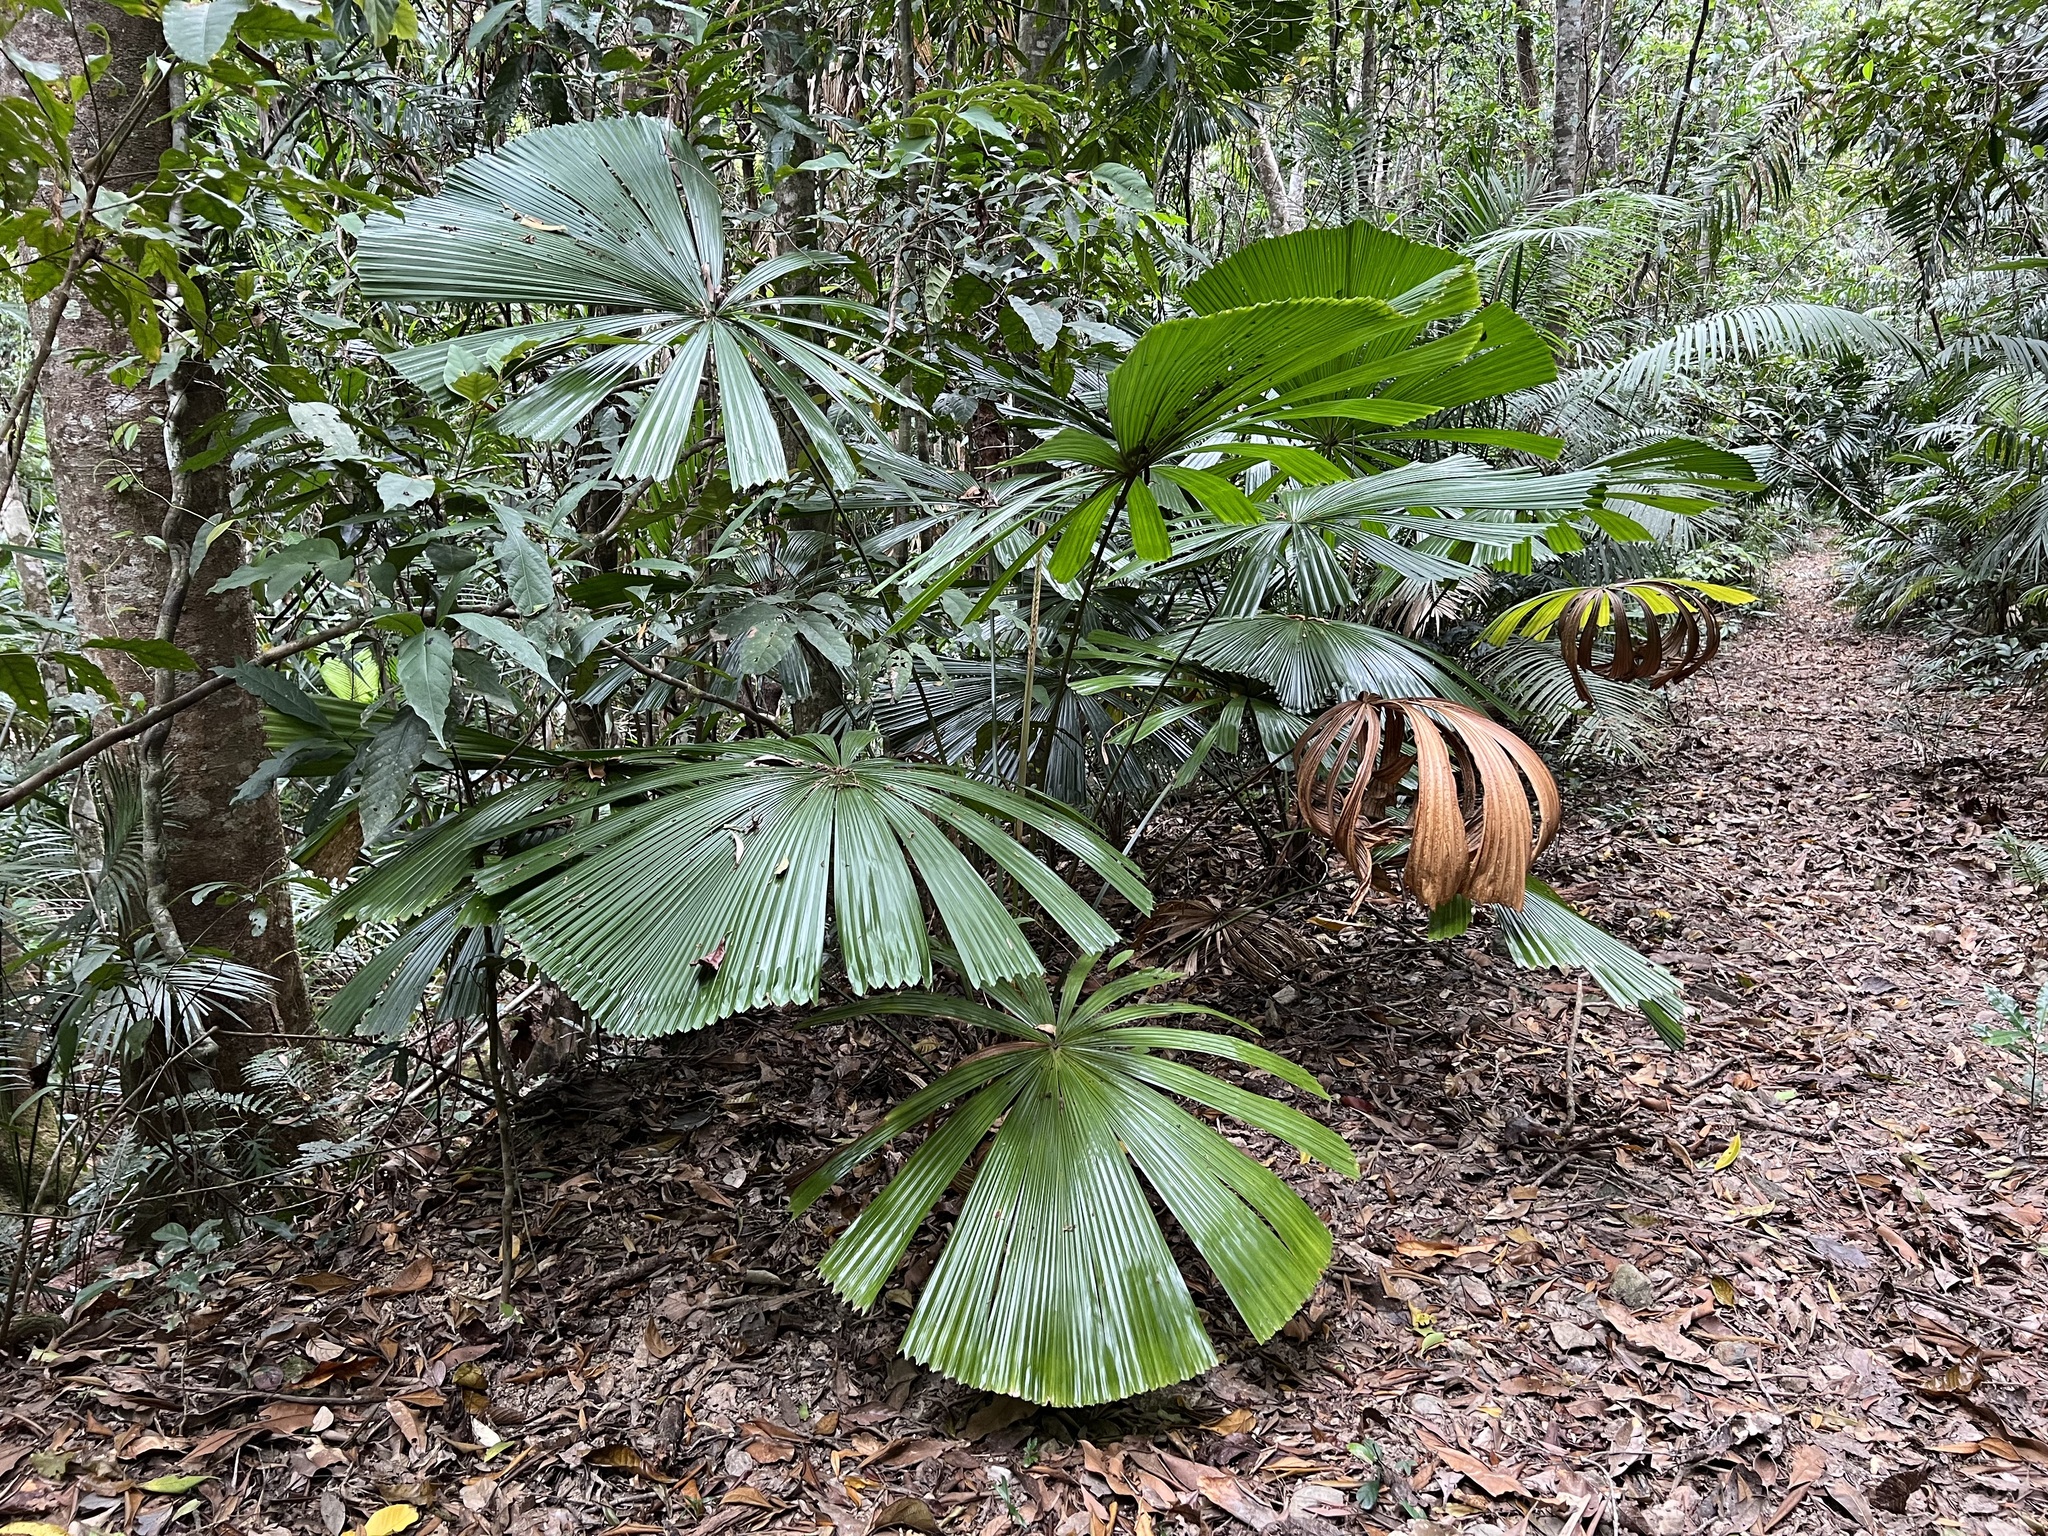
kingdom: Plantae
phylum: Tracheophyta
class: Liliopsida
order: Arecales
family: Arecaceae
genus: Licuala
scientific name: Licuala ramsayi
